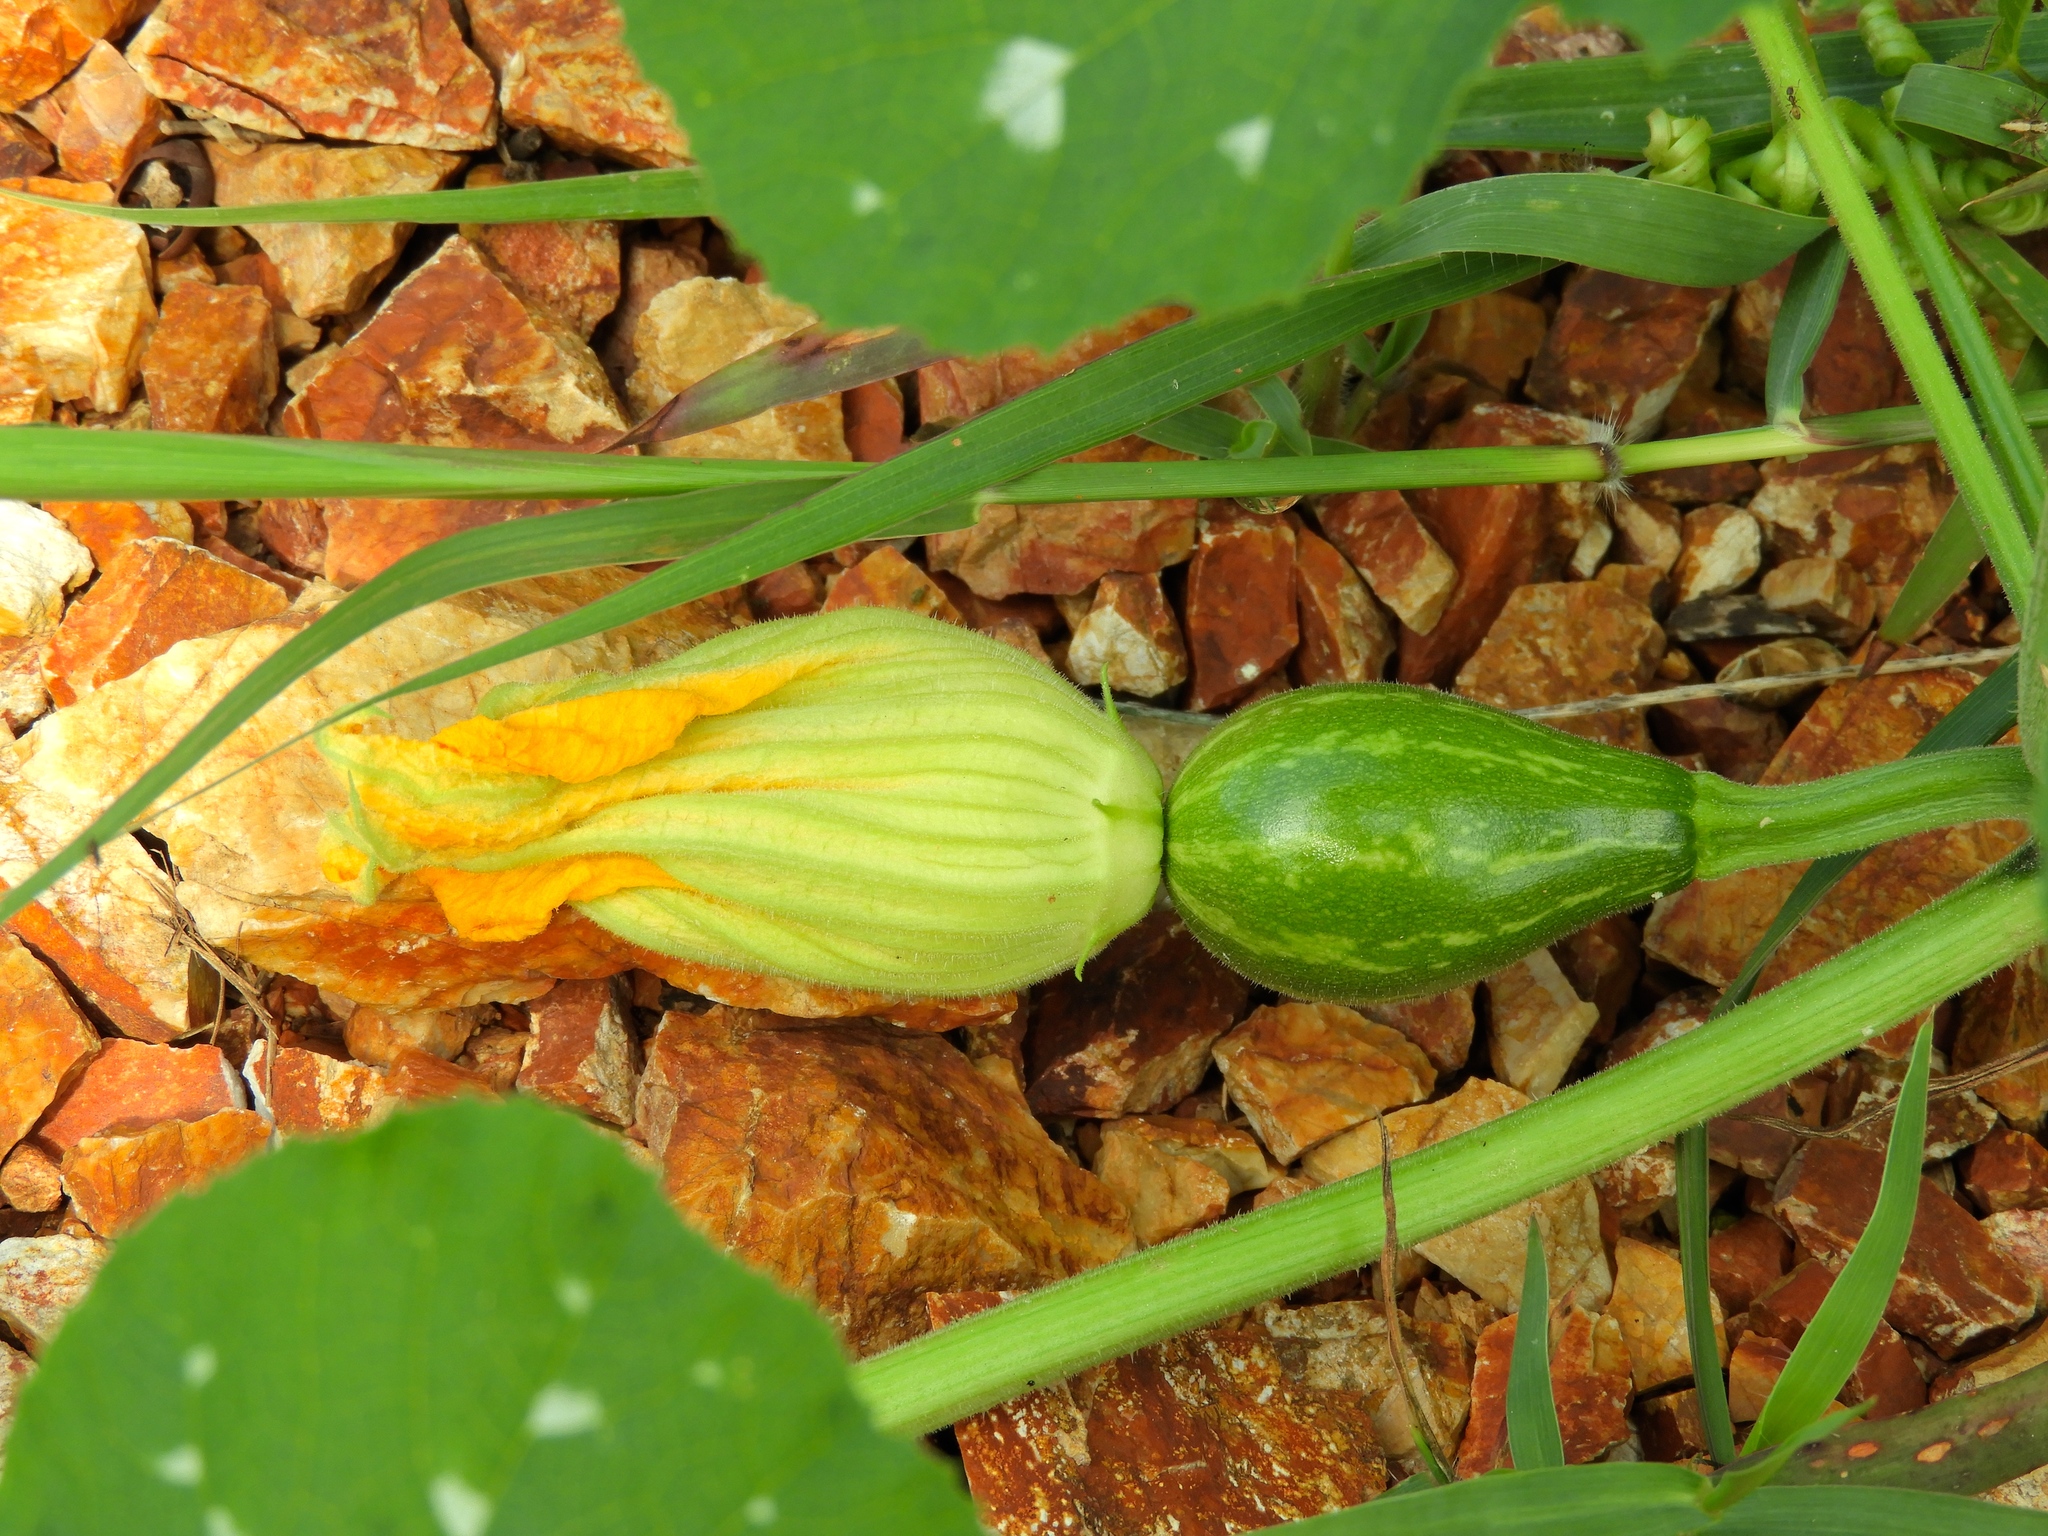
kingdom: Plantae
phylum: Tracheophyta
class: Magnoliopsida
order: Cucurbitales
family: Cucurbitaceae
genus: Cucurbita
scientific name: Cucurbita ficifolia
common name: Figleaf gourd
